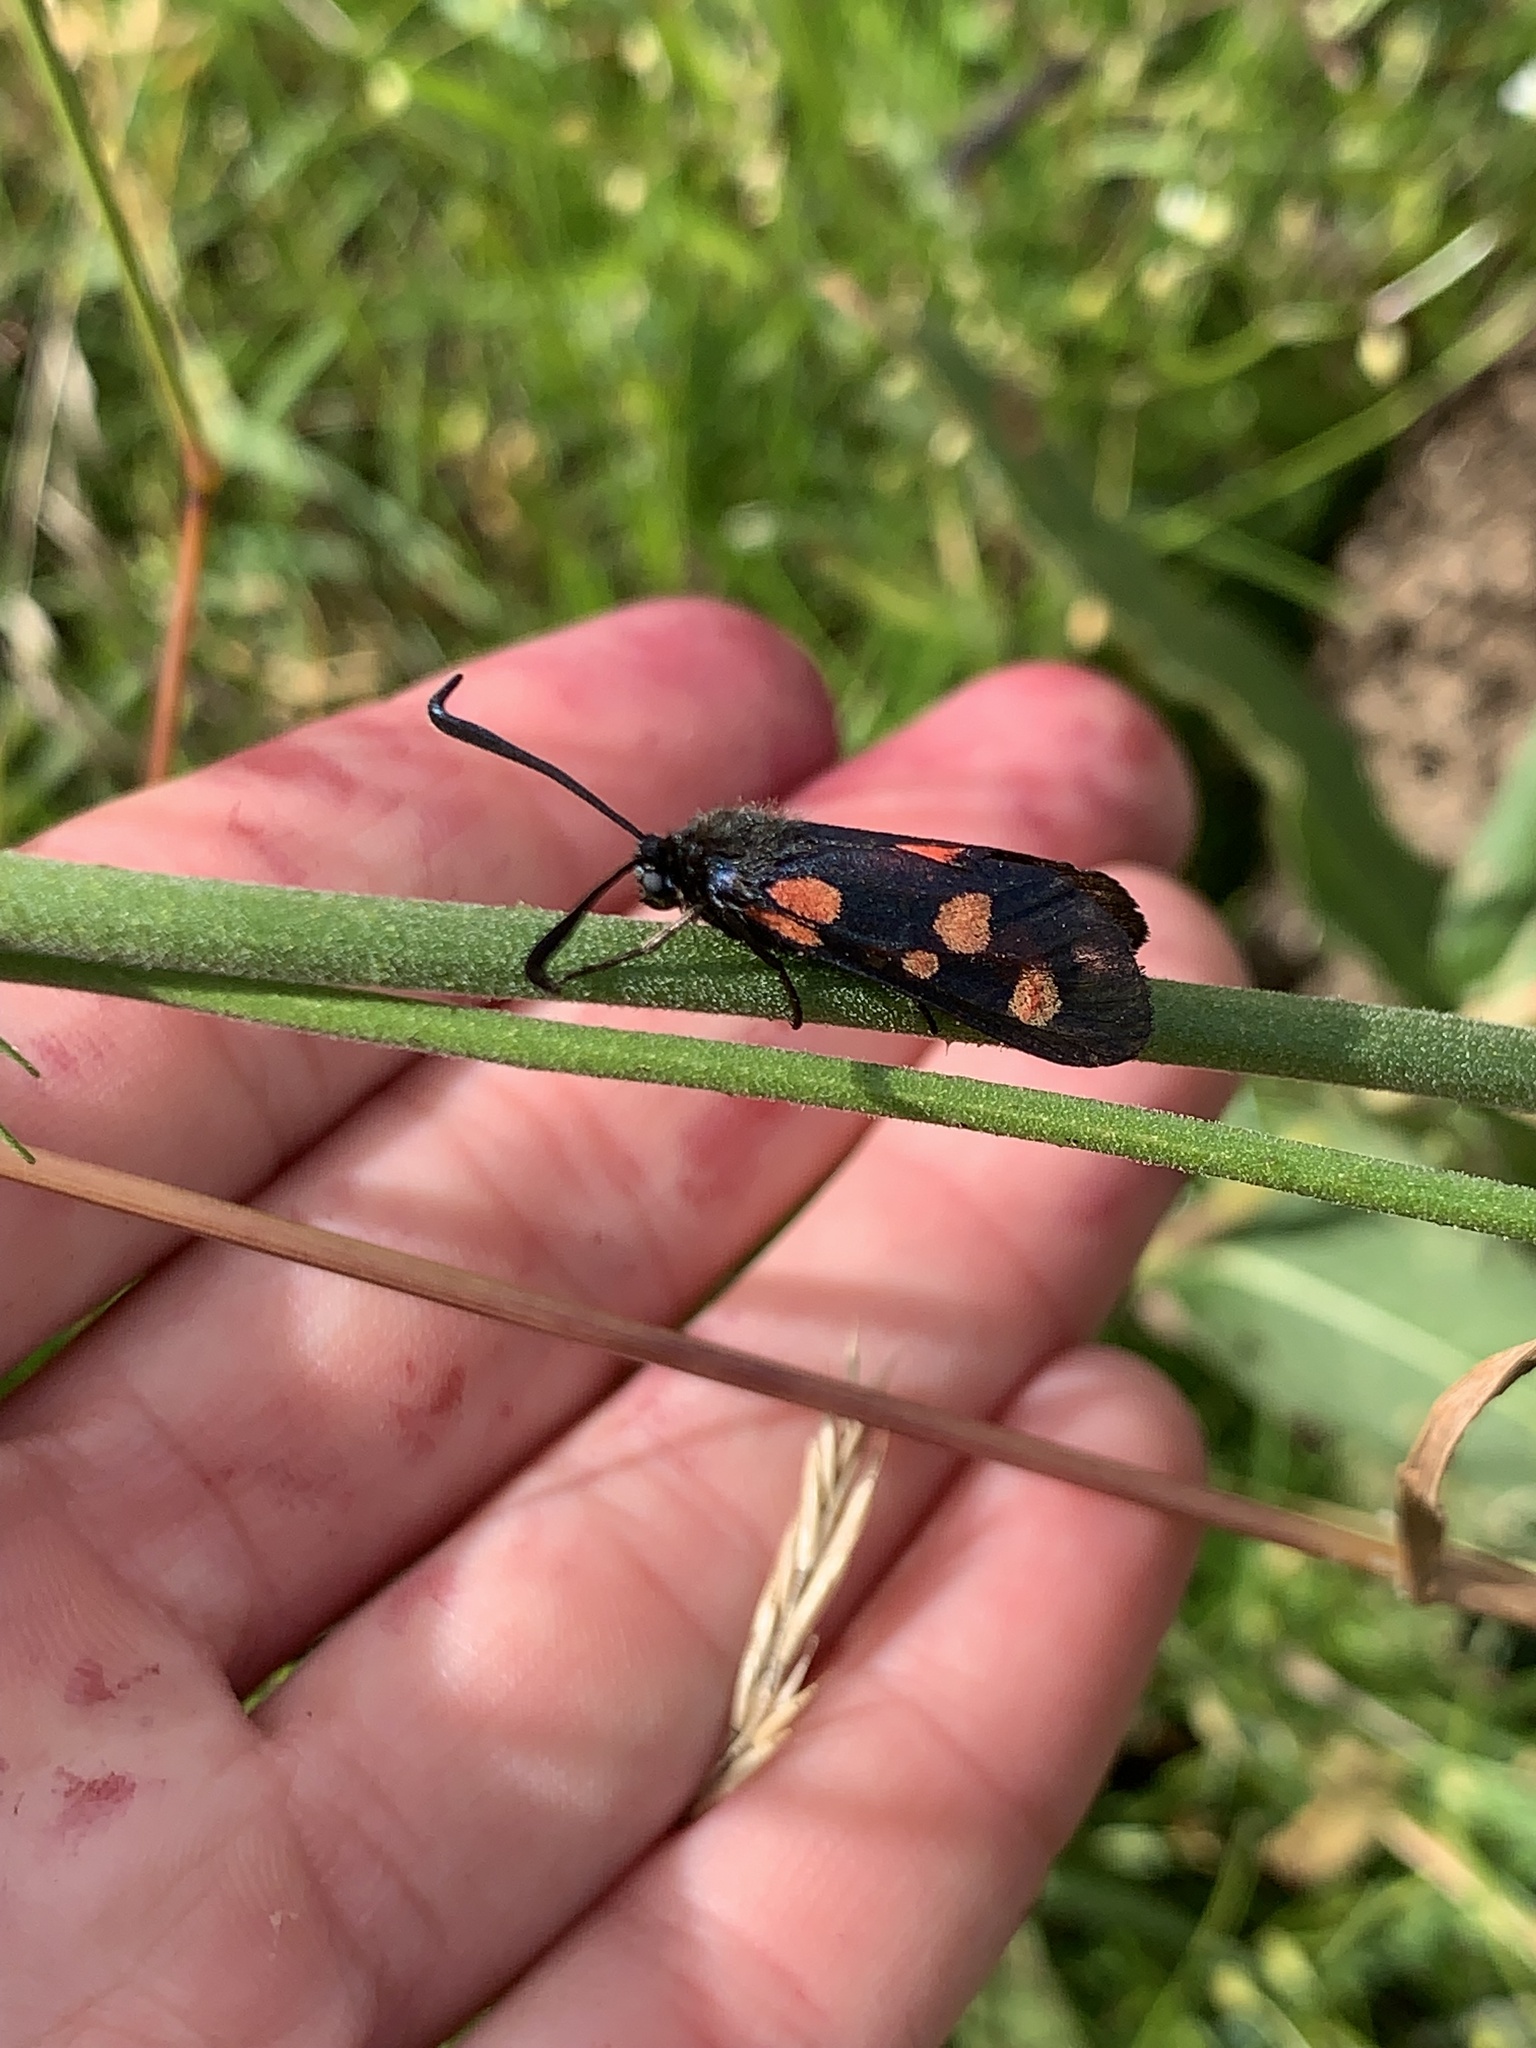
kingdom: Animalia
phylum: Arthropoda
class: Insecta
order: Lepidoptera
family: Zygaenidae
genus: Zygaena
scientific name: Zygaena lonicerae
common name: Narrow-bordered five-spot burnet
